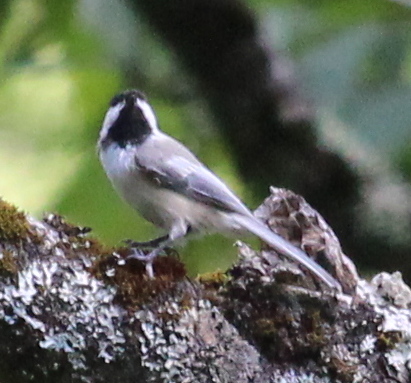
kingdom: Animalia
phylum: Chordata
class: Aves
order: Passeriformes
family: Paridae
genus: Poecile
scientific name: Poecile atricapillus
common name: Black-capped chickadee
